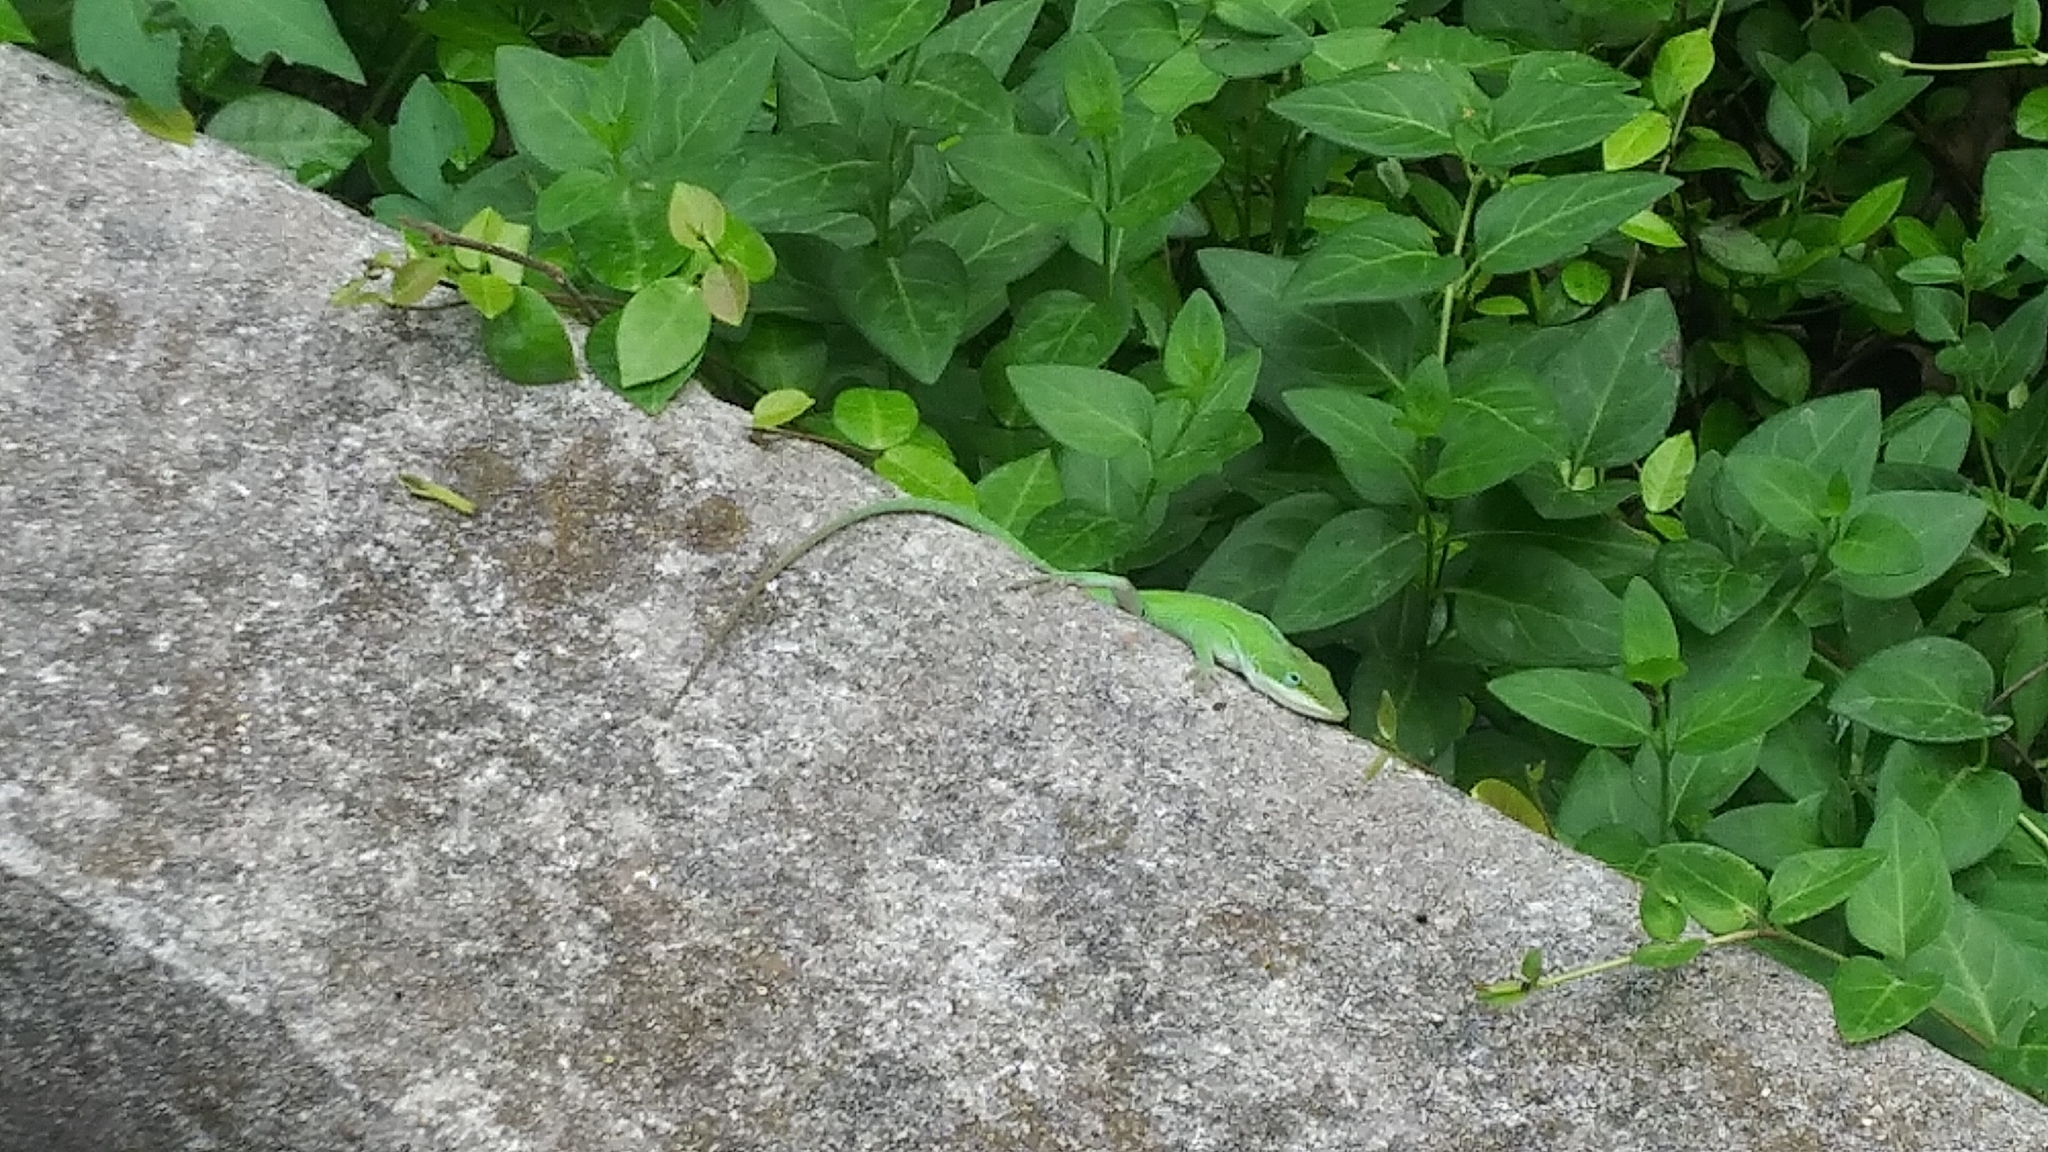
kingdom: Animalia
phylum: Chordata
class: Squamata
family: Dactyloidae
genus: Anolis
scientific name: Anolis carolinensis
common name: Green anole
